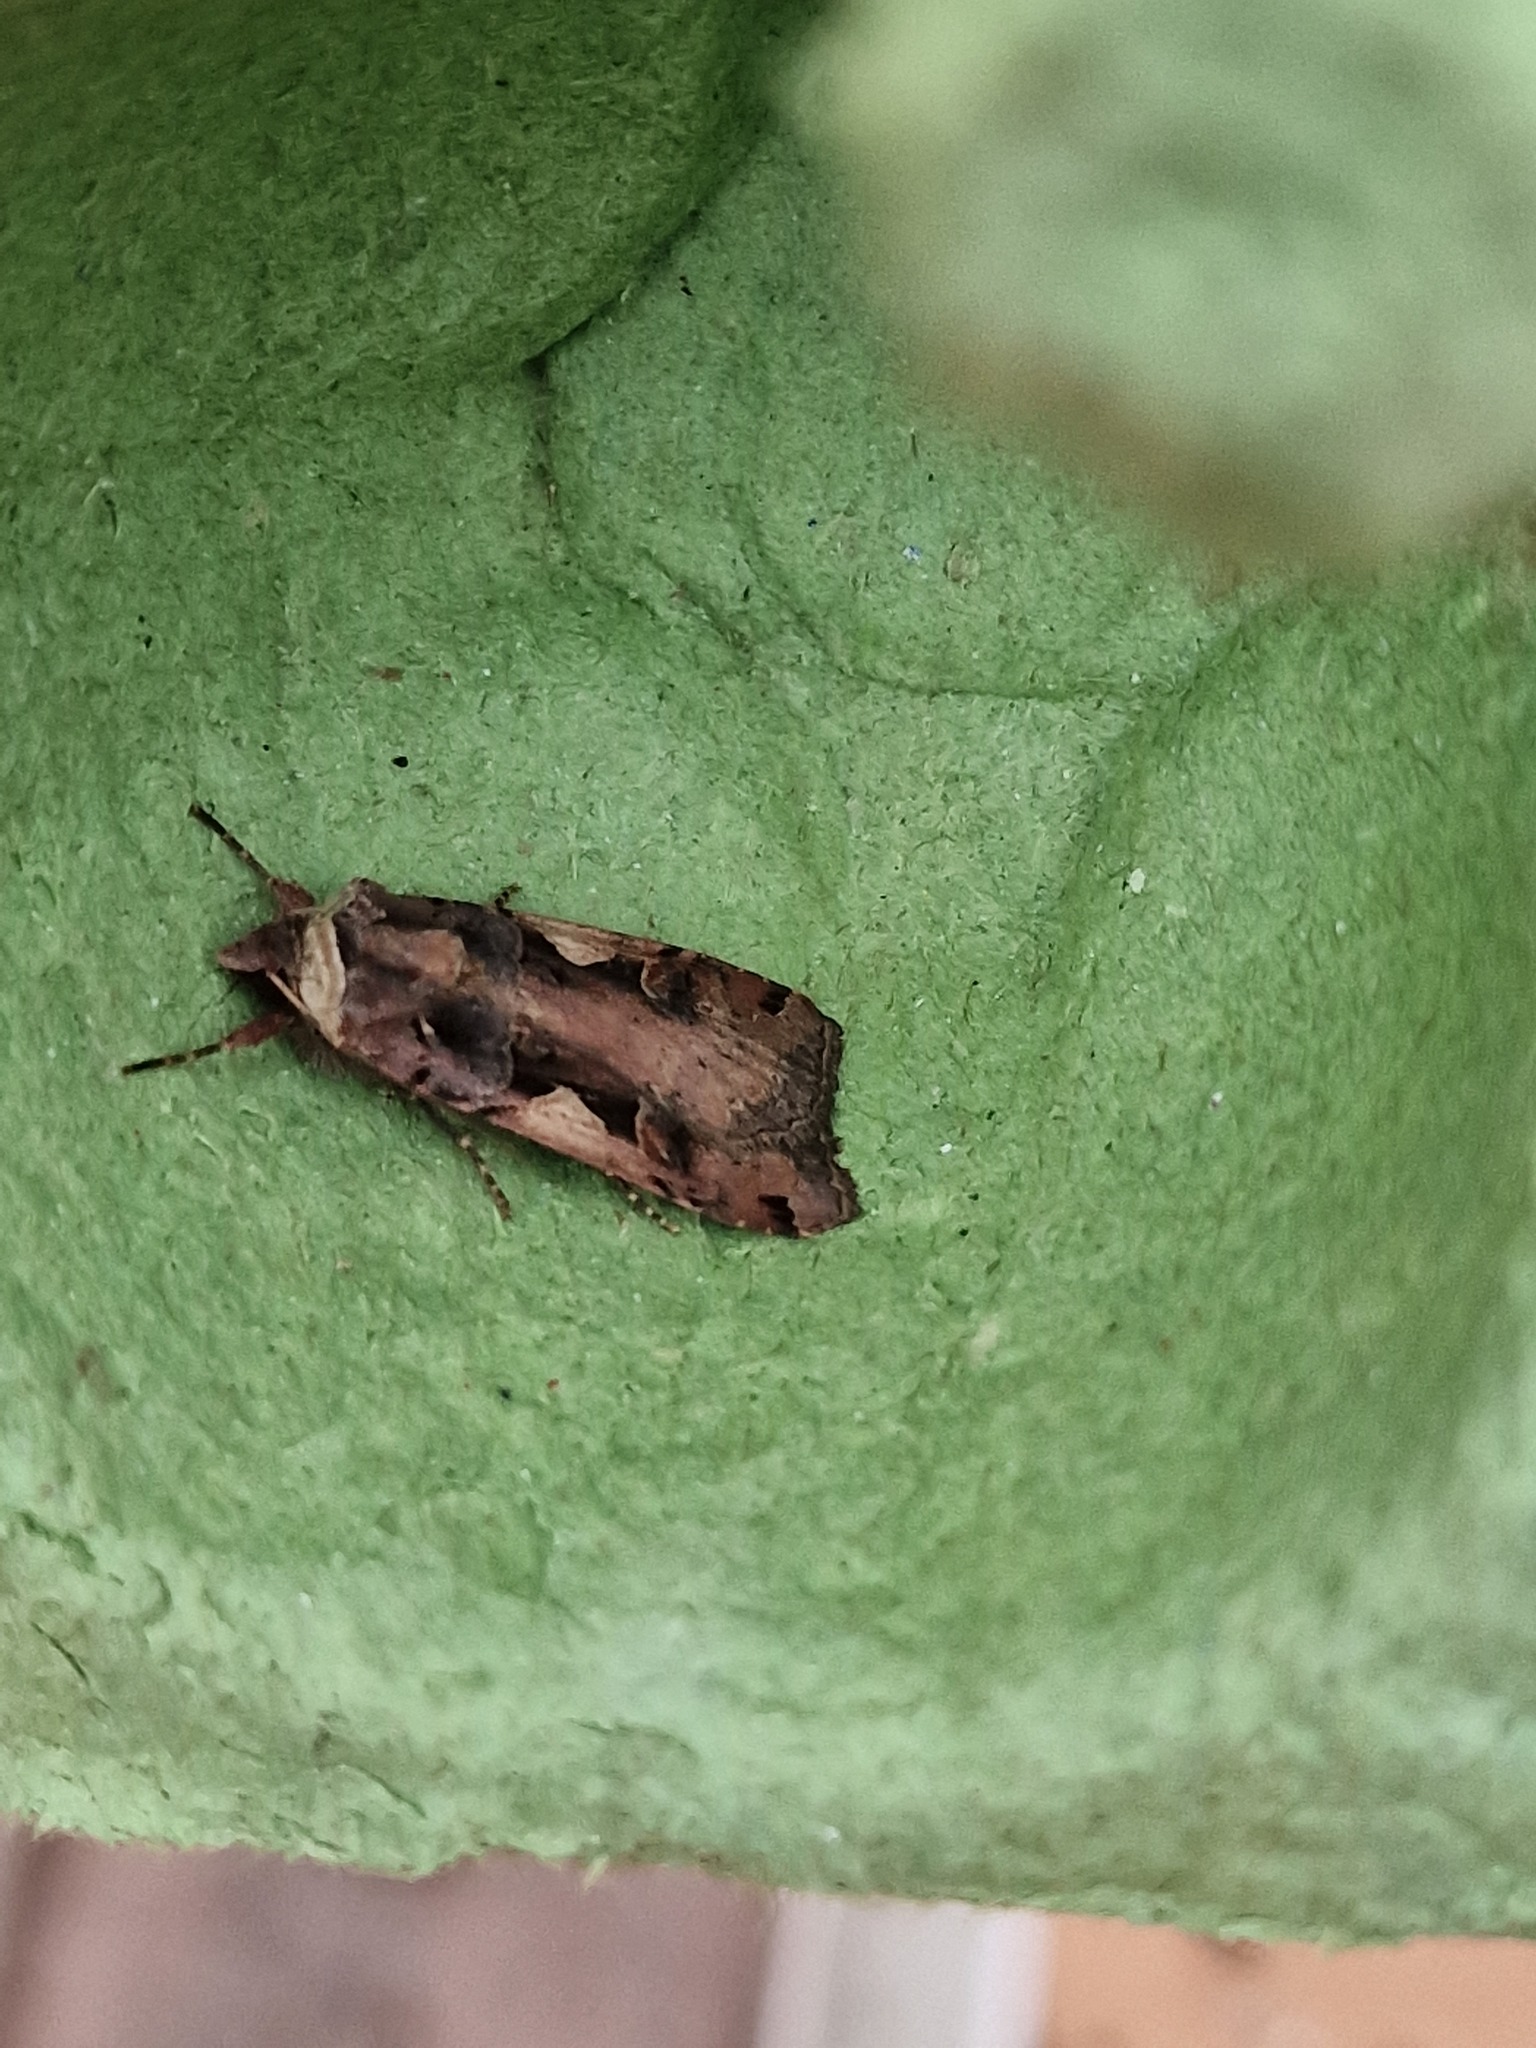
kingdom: Animalia
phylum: Arthropoda
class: Insecta
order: Lepidoptera
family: Noctuidae
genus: Xestia
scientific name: Xestia c-nigrum
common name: Setaceous hebrew character
